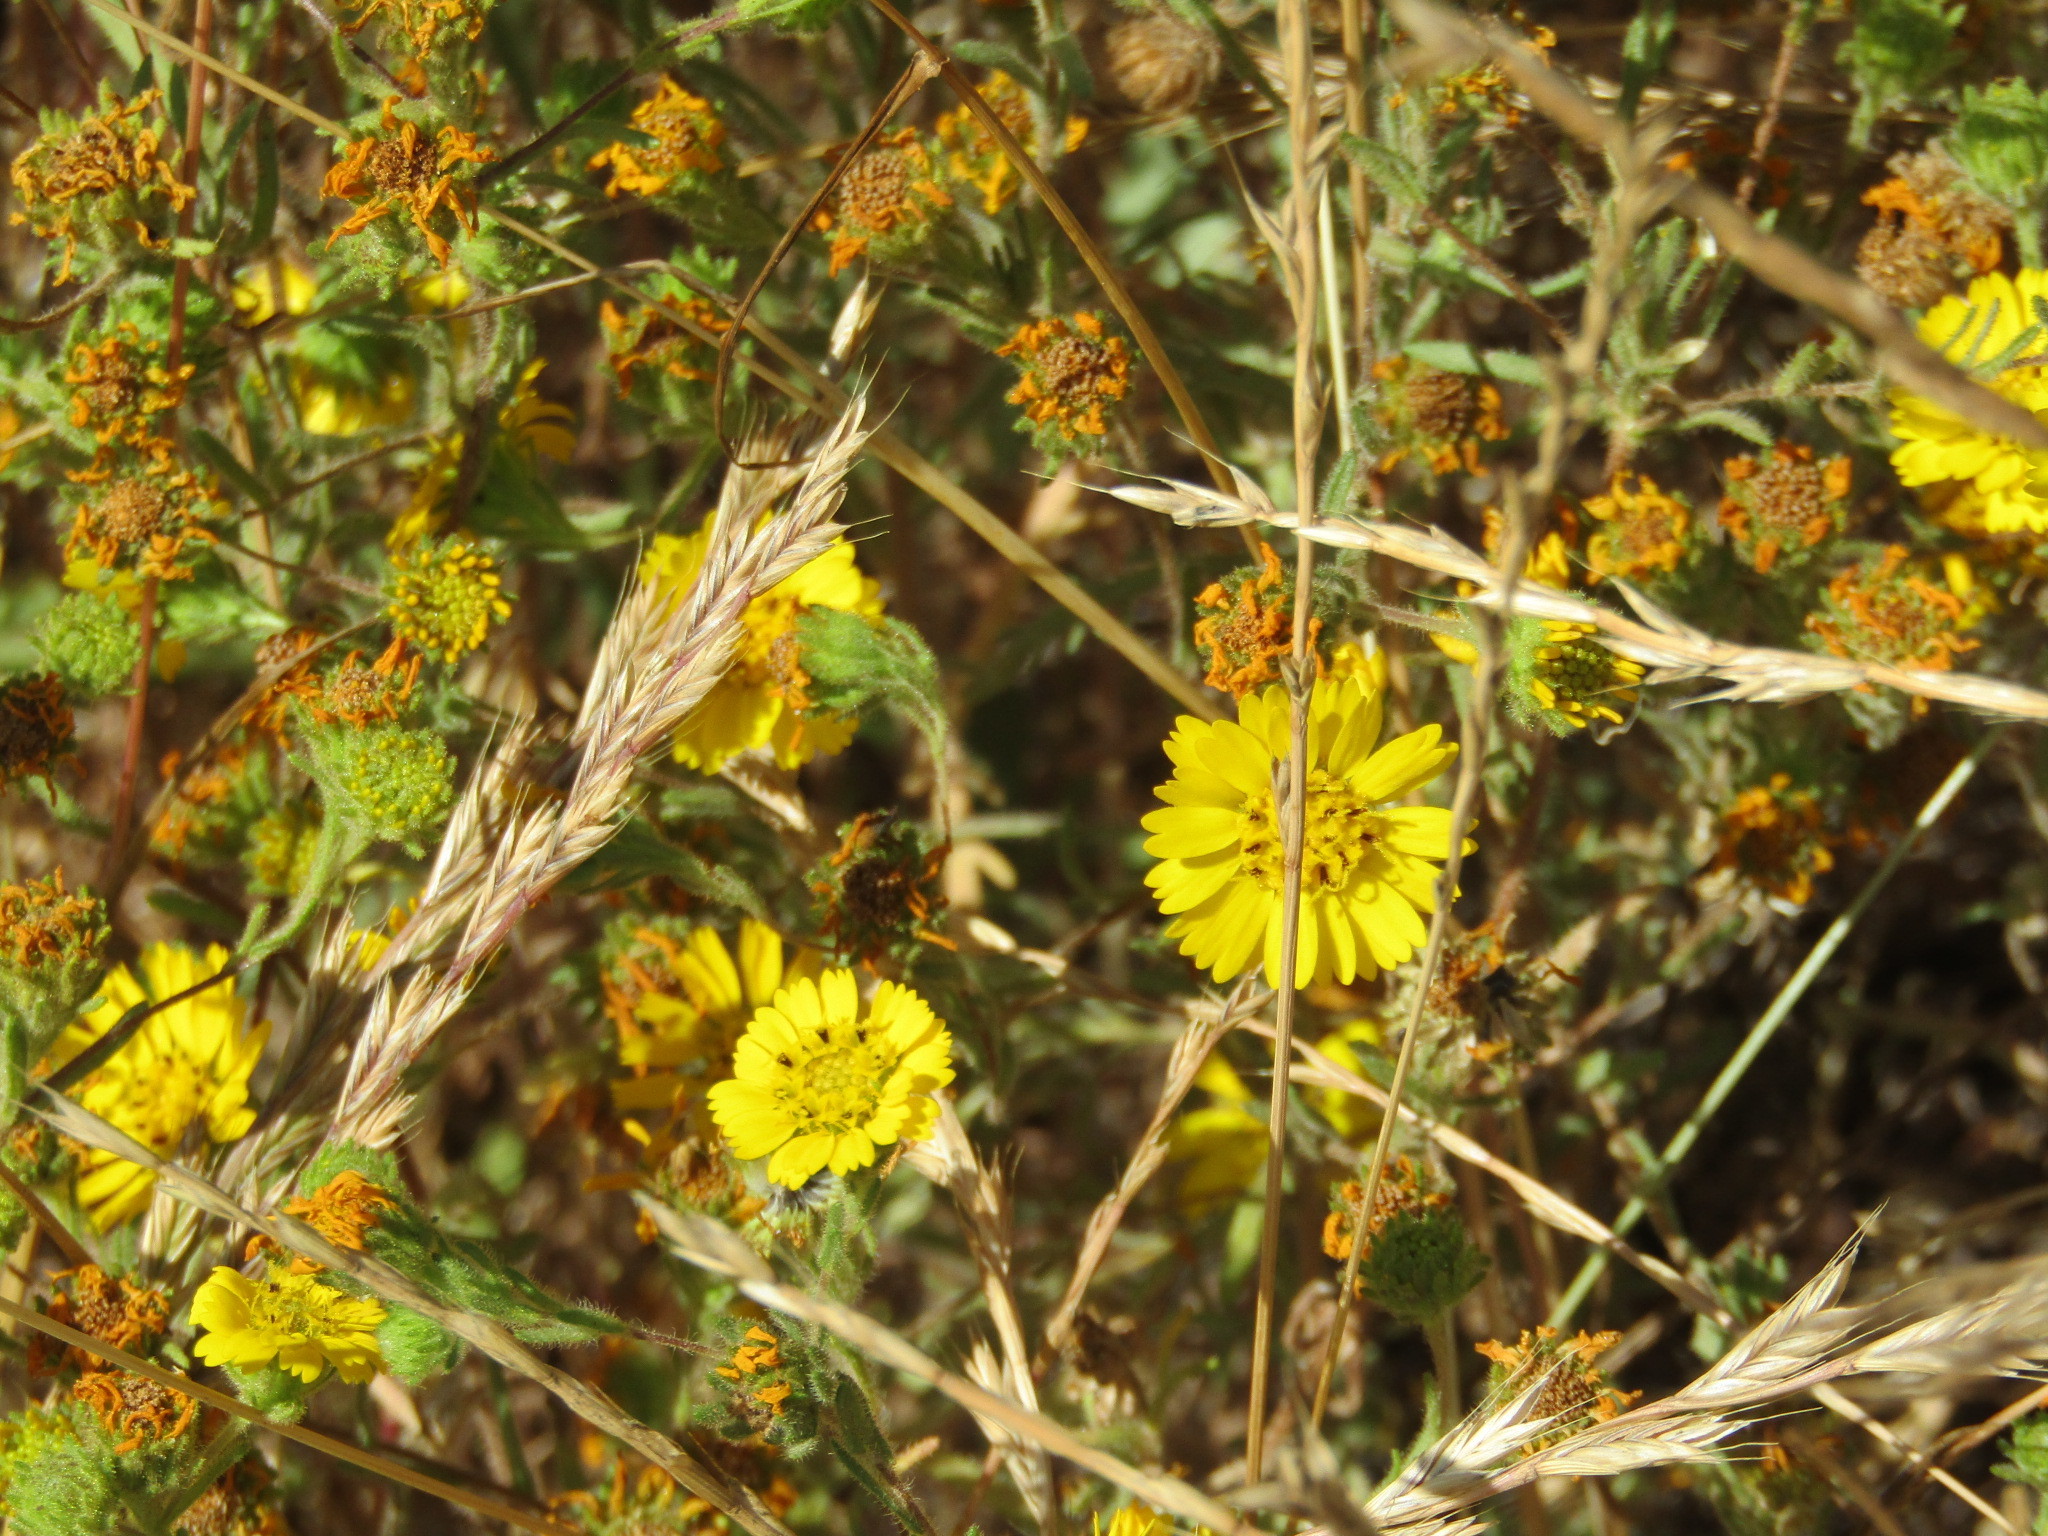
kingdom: Plantae
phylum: Tracheophyta
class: Magnoliopsida
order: Asterales
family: Asteraceae
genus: Deinandra
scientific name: Deinandra corymbosa
